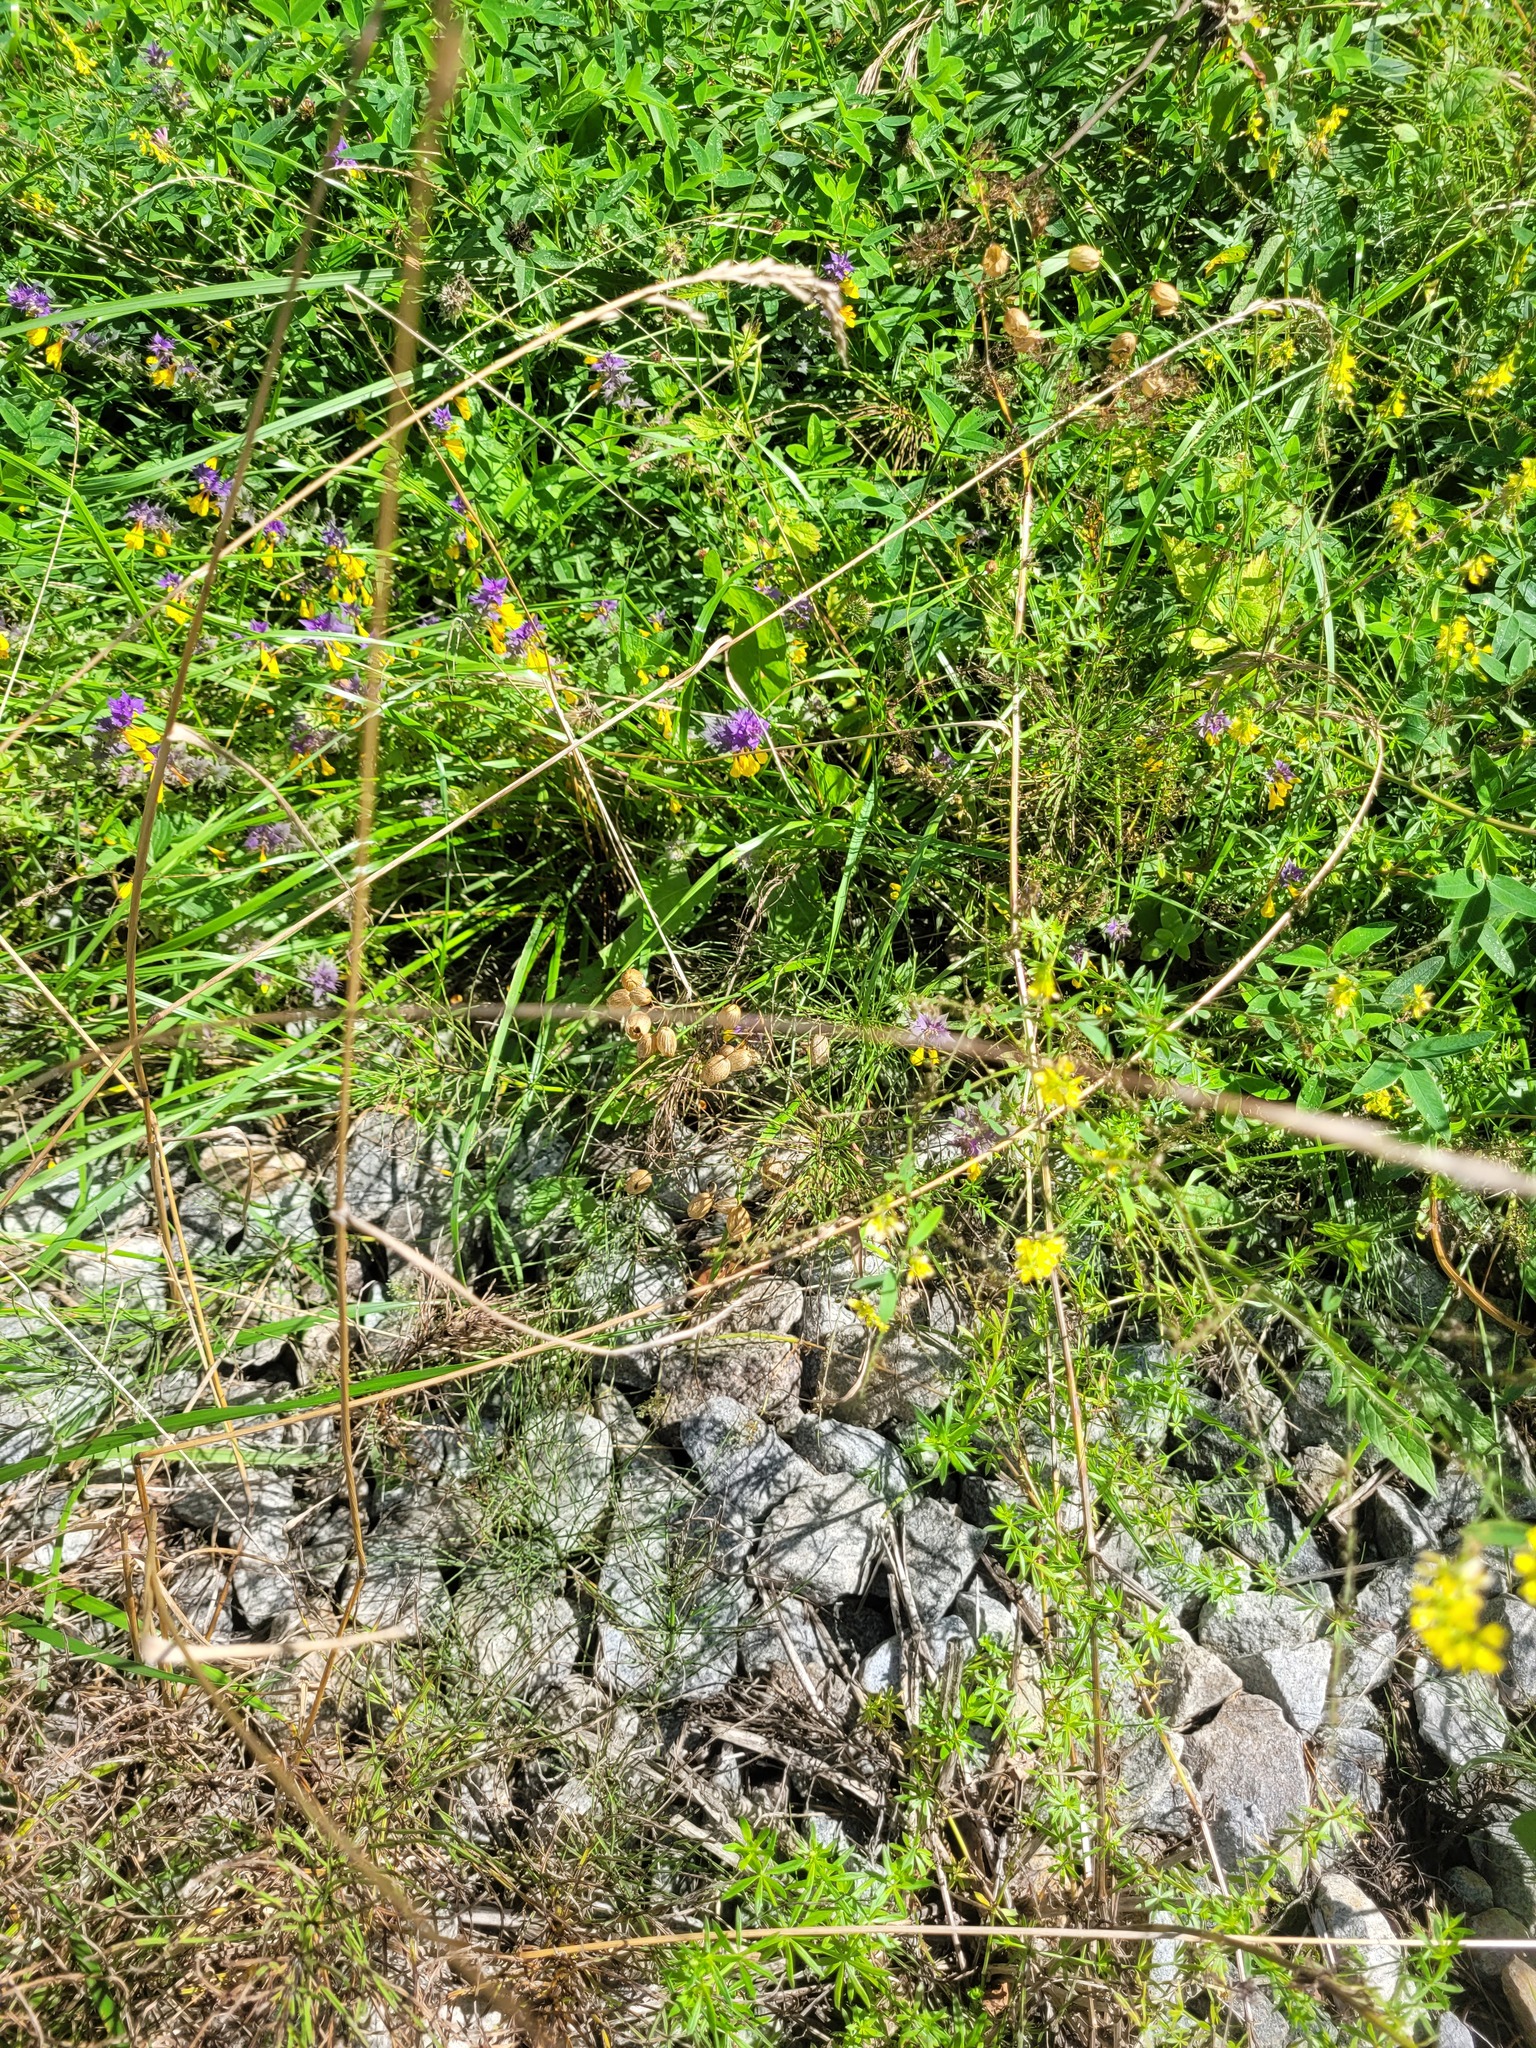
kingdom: Plantae
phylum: Tracheophyta
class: Magnoliopsida
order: Caryophyllales
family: Caryophyllaceae
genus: Silene
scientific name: Silene vulgaris
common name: Bladder campion
